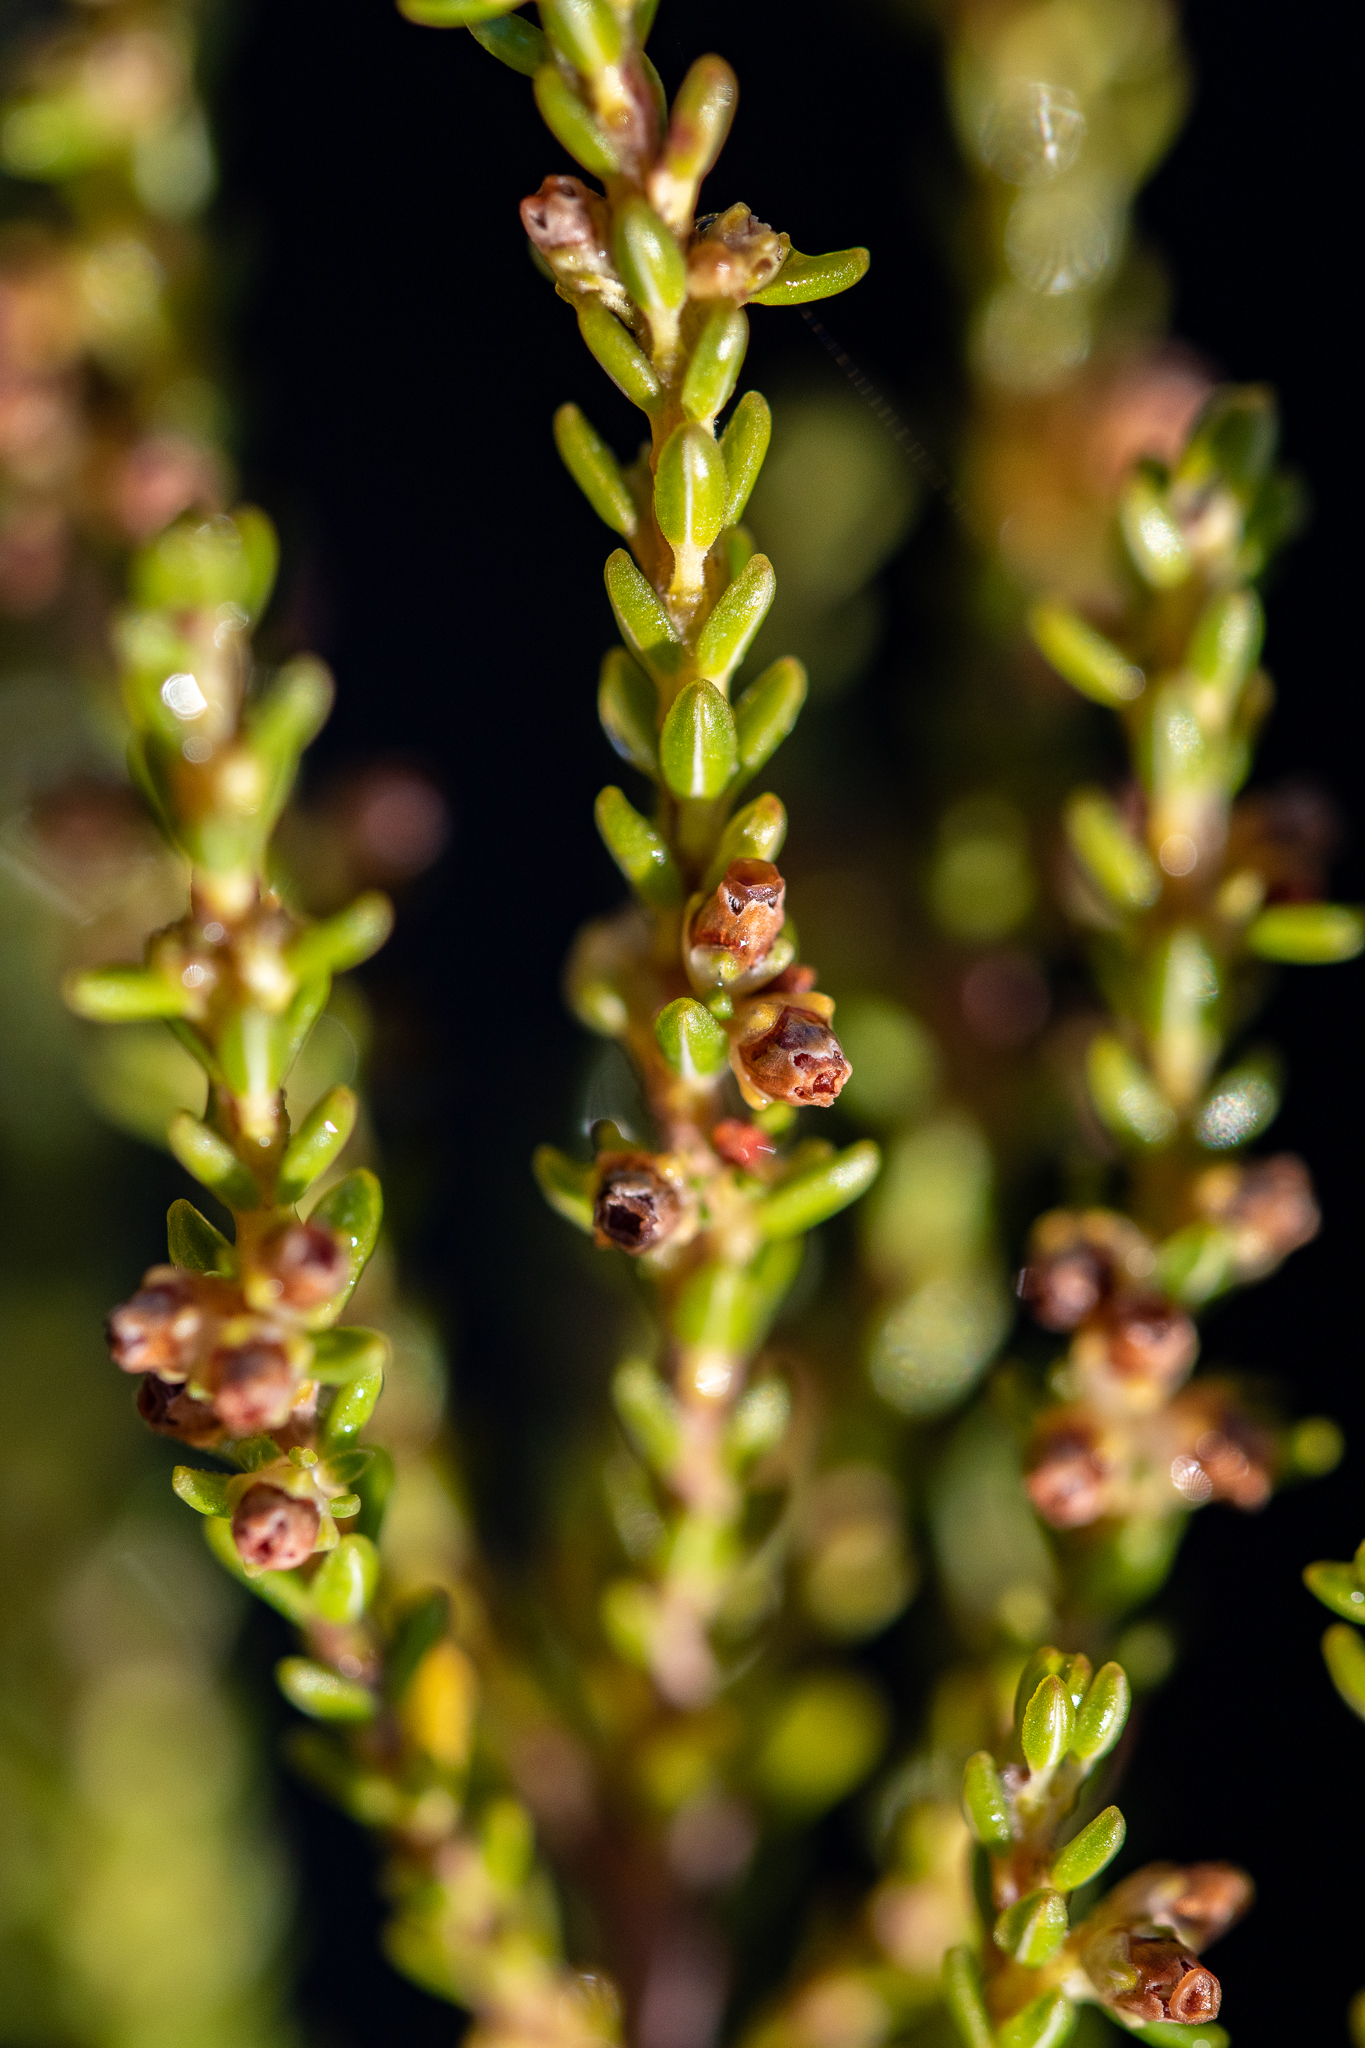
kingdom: Plantae
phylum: Tracheophyta
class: Magnoliopsida
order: Ericales
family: Ericaceae
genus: Erica
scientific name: Erica axillaris
